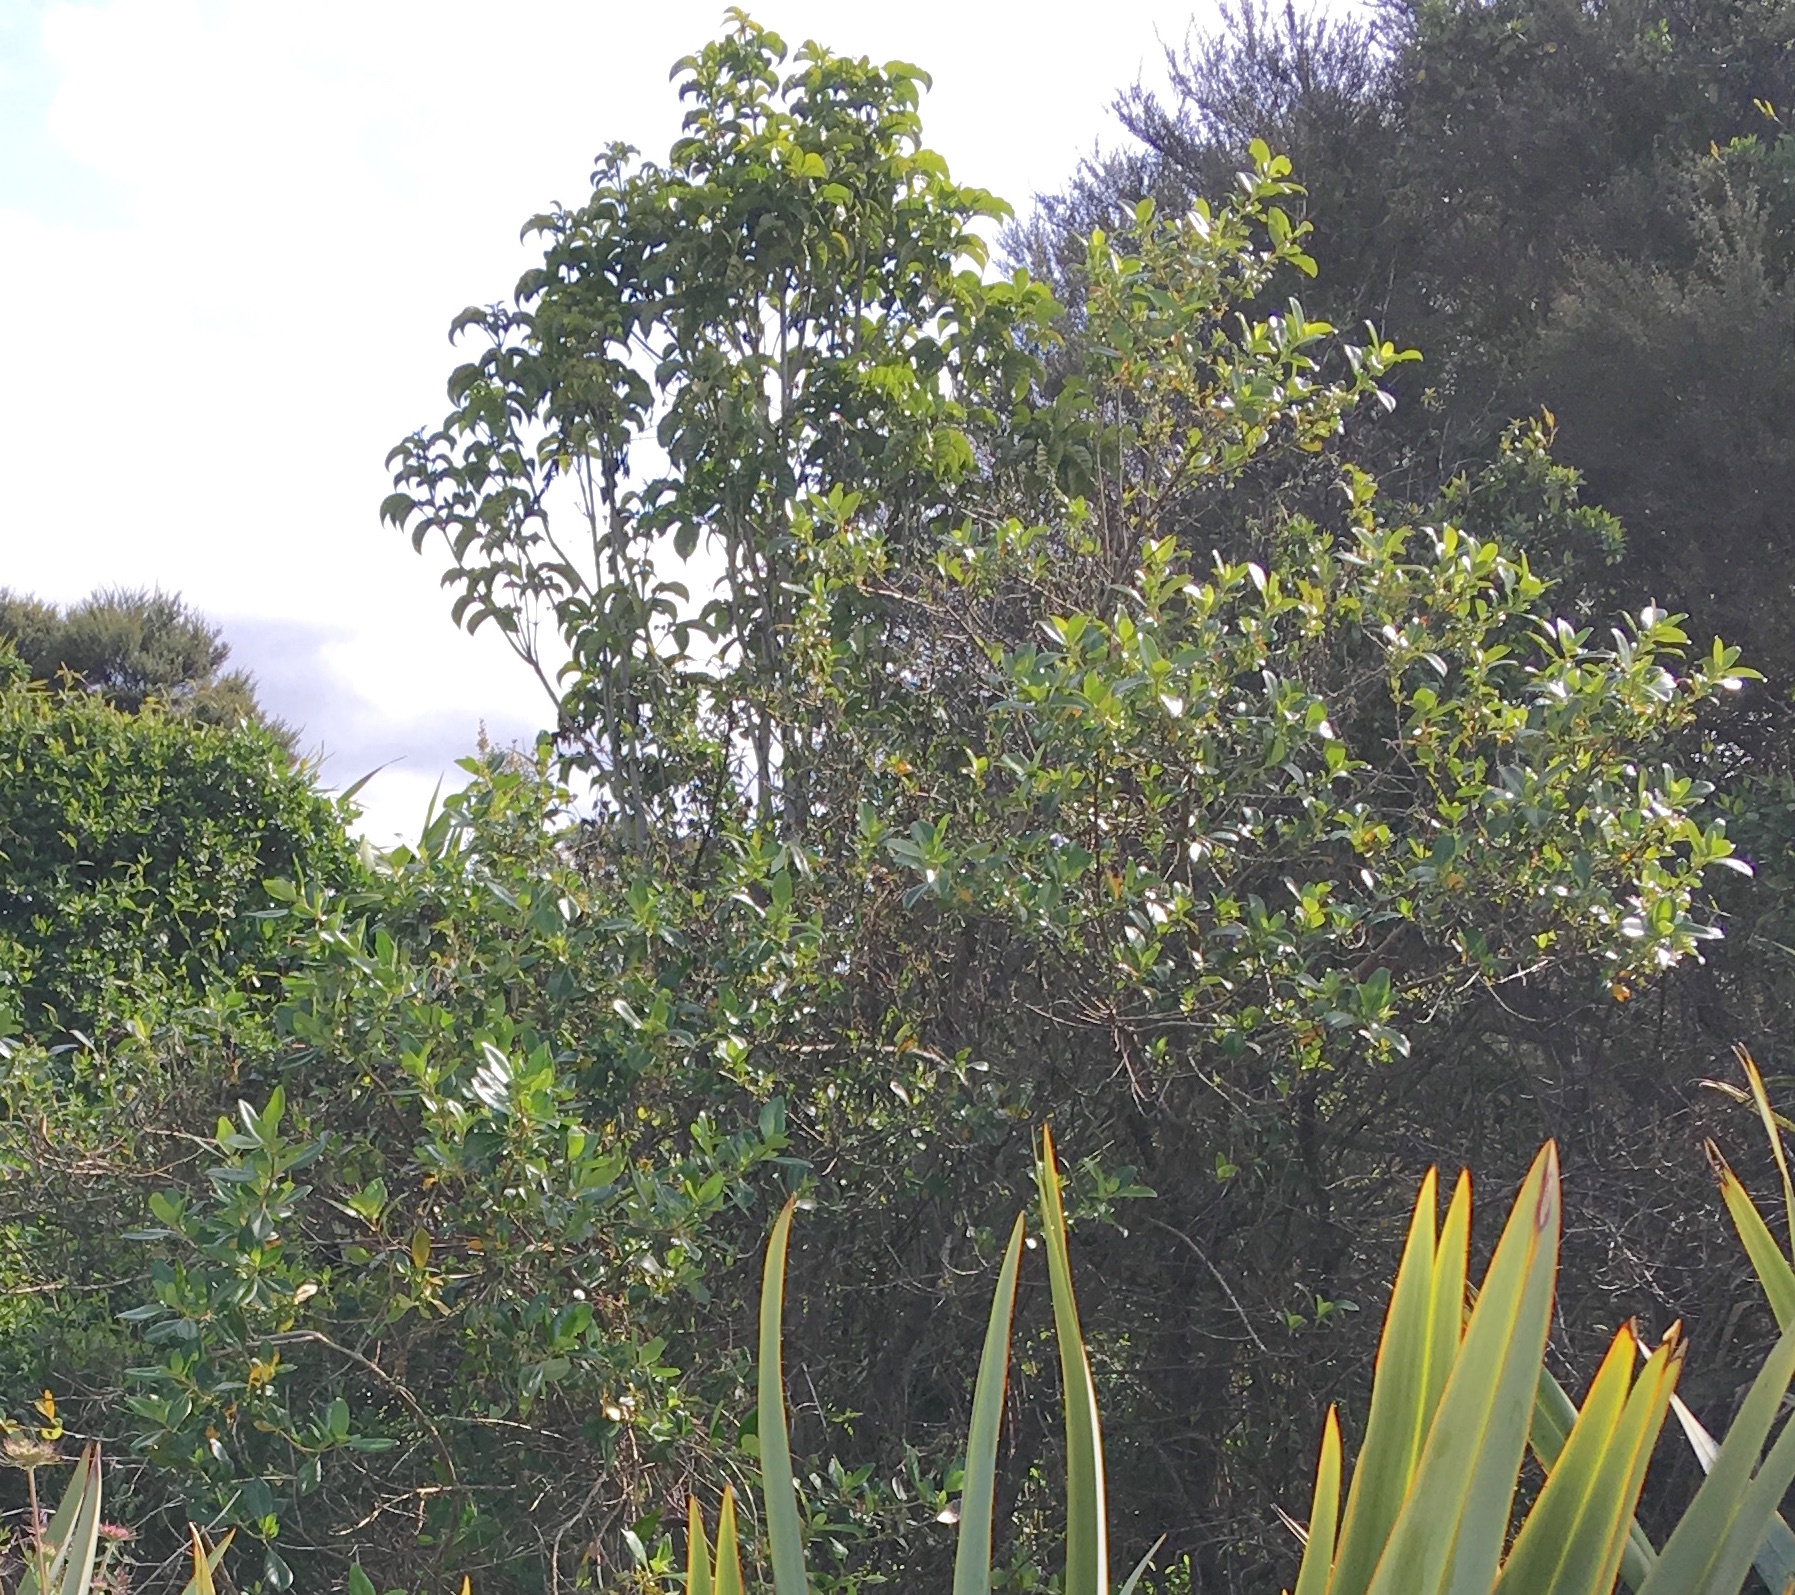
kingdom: Plantae
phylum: Tracheophyta
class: Magnoliopsida
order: Lamiales
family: Lamiaceae
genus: Vitex
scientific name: Vitex lucens
